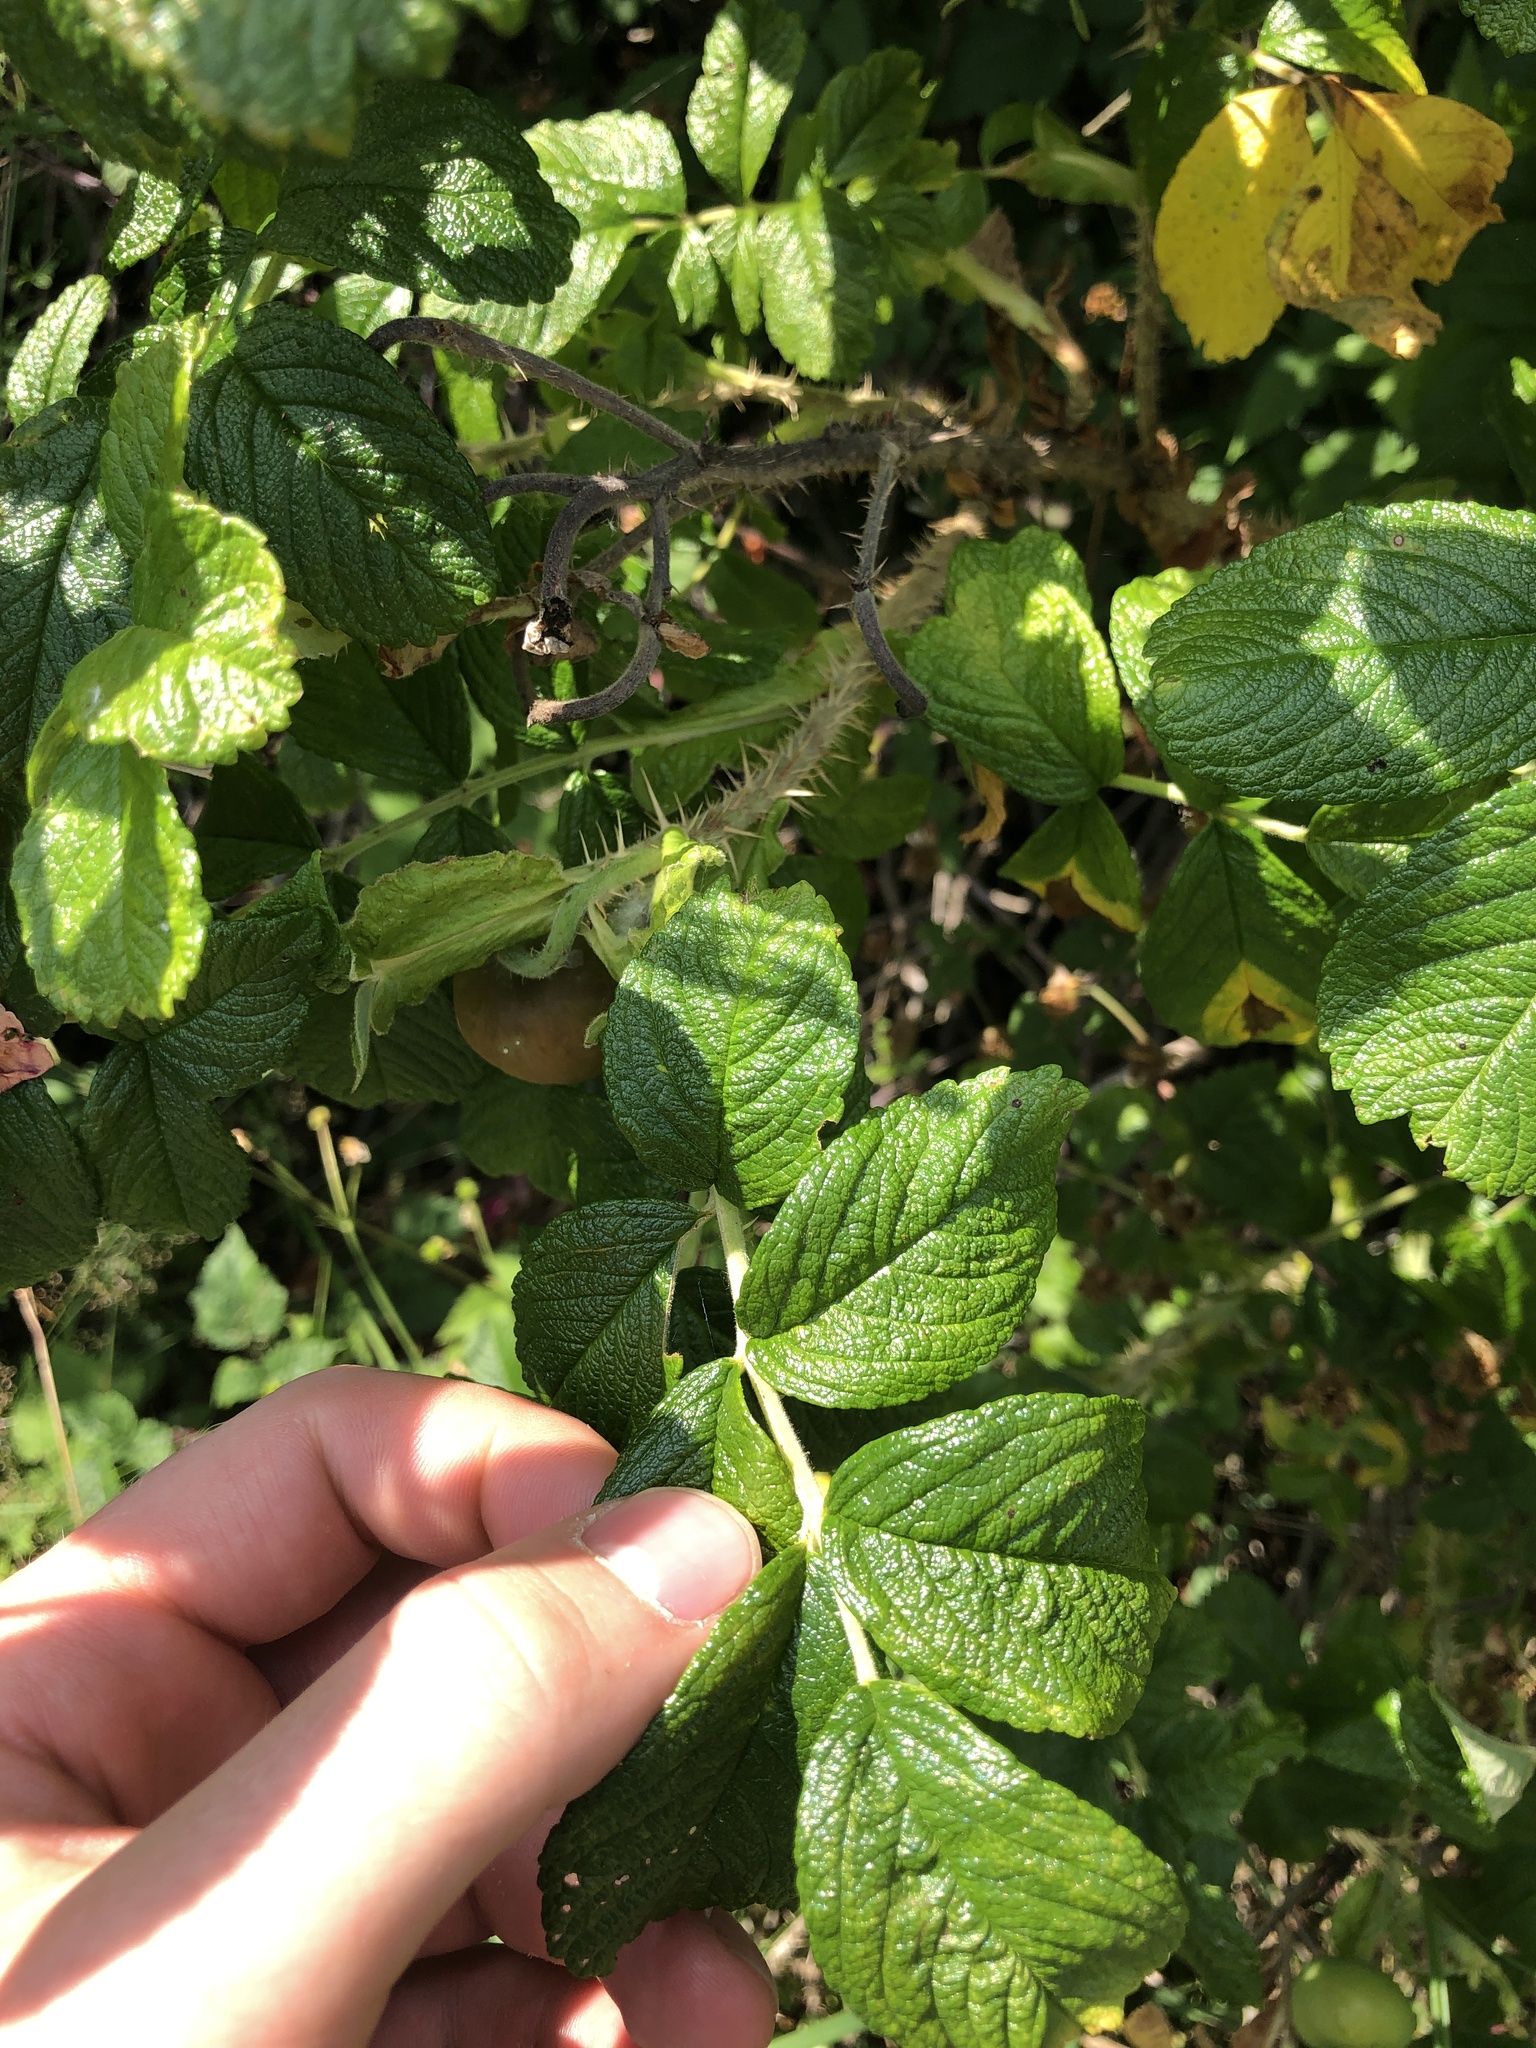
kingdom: Plantae
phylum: Tracheophyta
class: Magnoliopsida
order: Rosales
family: Rosaceae
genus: Rosa
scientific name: Rosa rugosa
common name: Japanese rose
